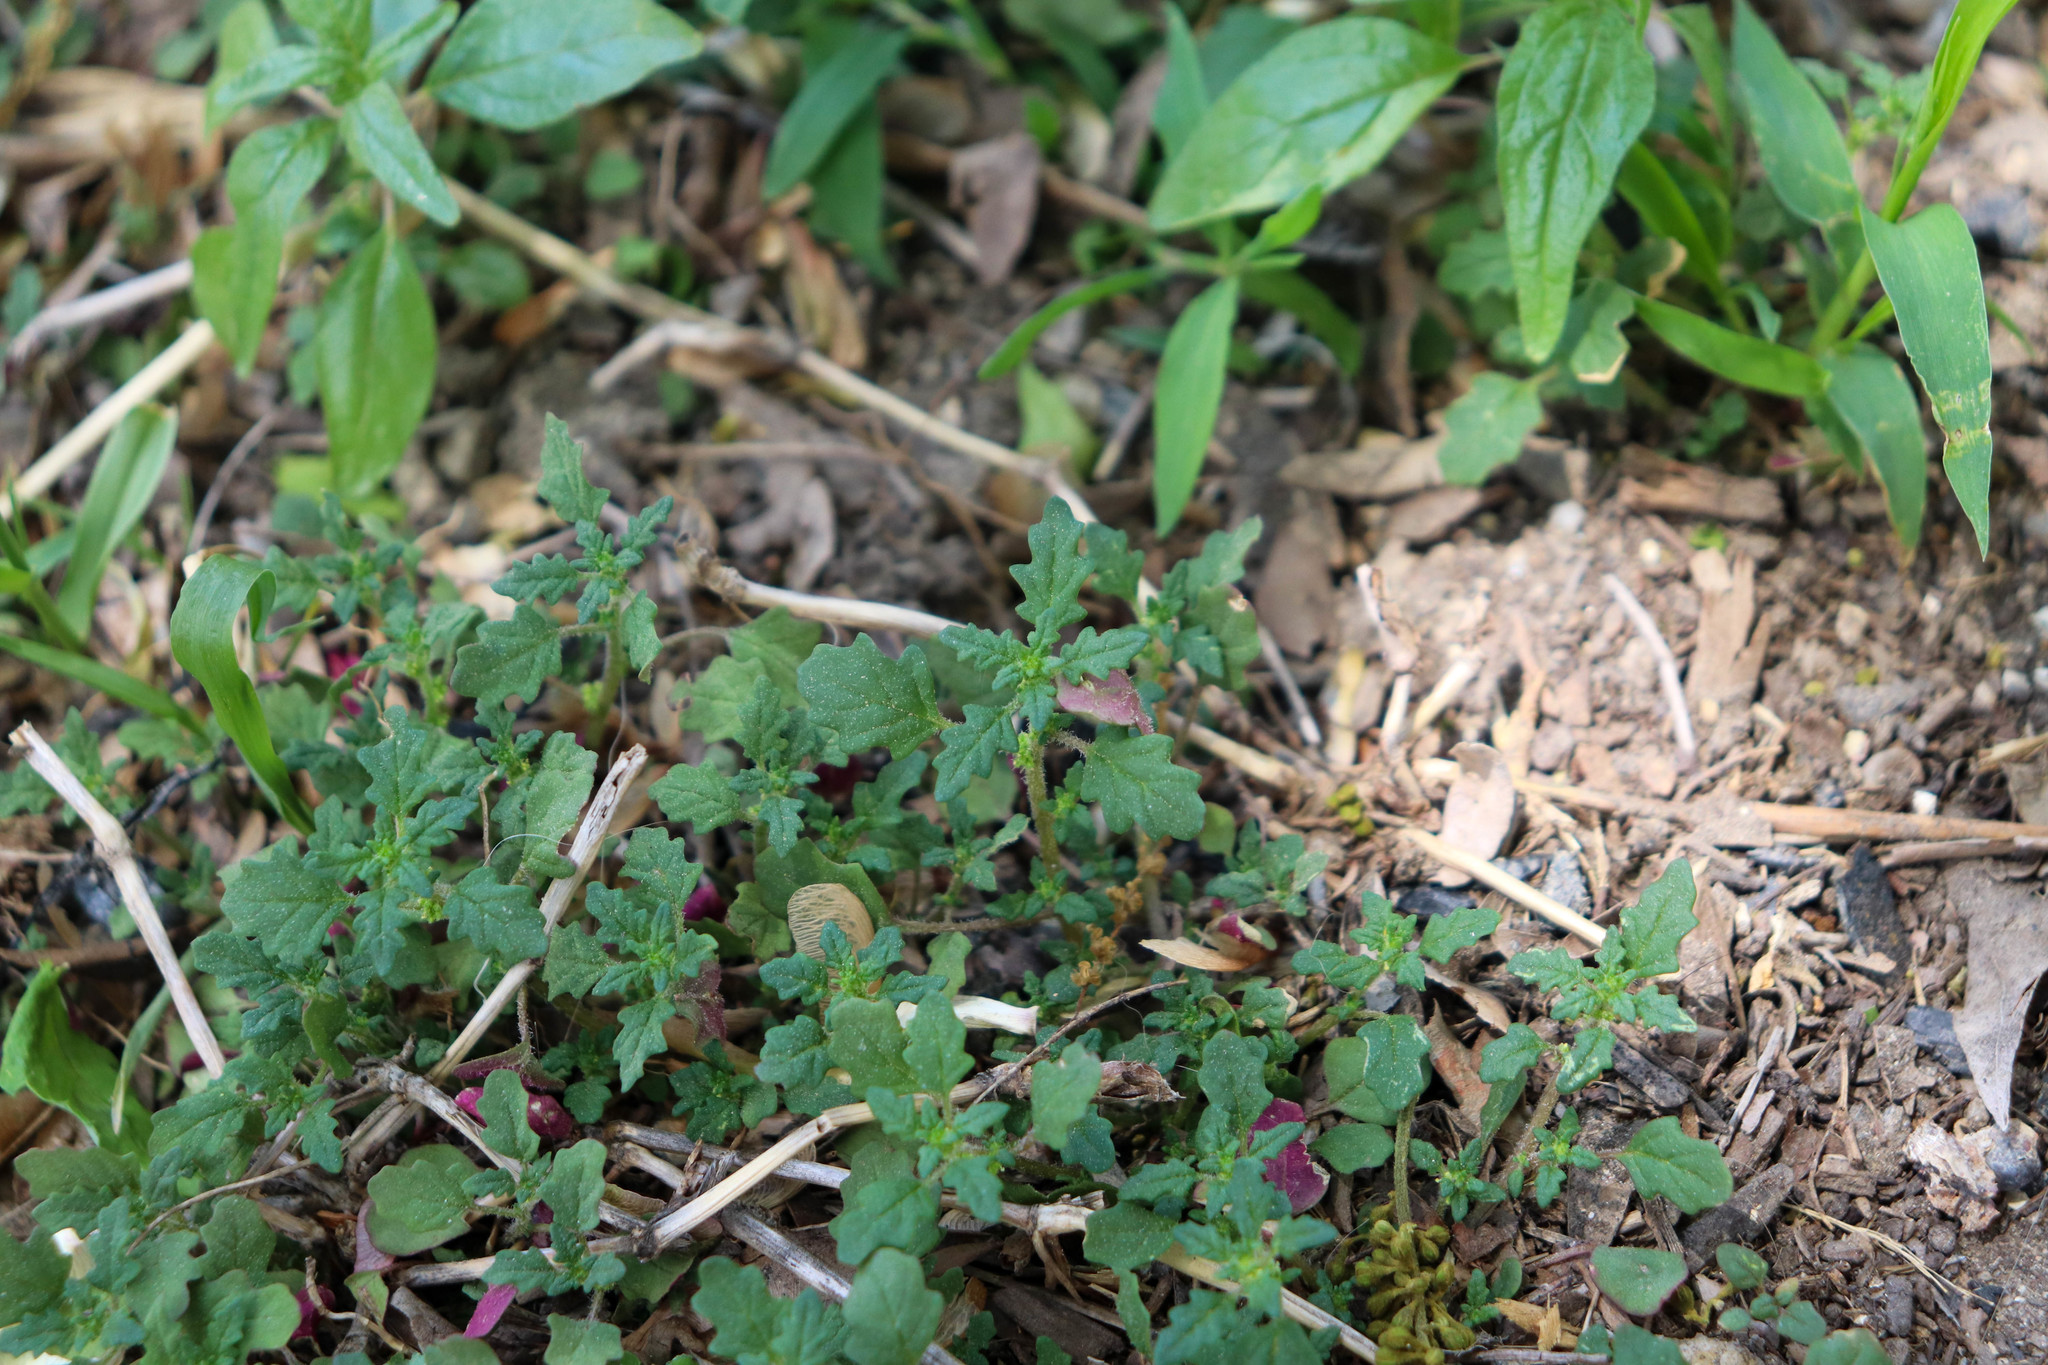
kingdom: Plantae
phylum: Tracheophyta
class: Magnoliopsida
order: Caryophyllales
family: Amaranthaceae
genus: Dysphania
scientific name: Dysphania pumilio
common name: Clammy goosefoot
